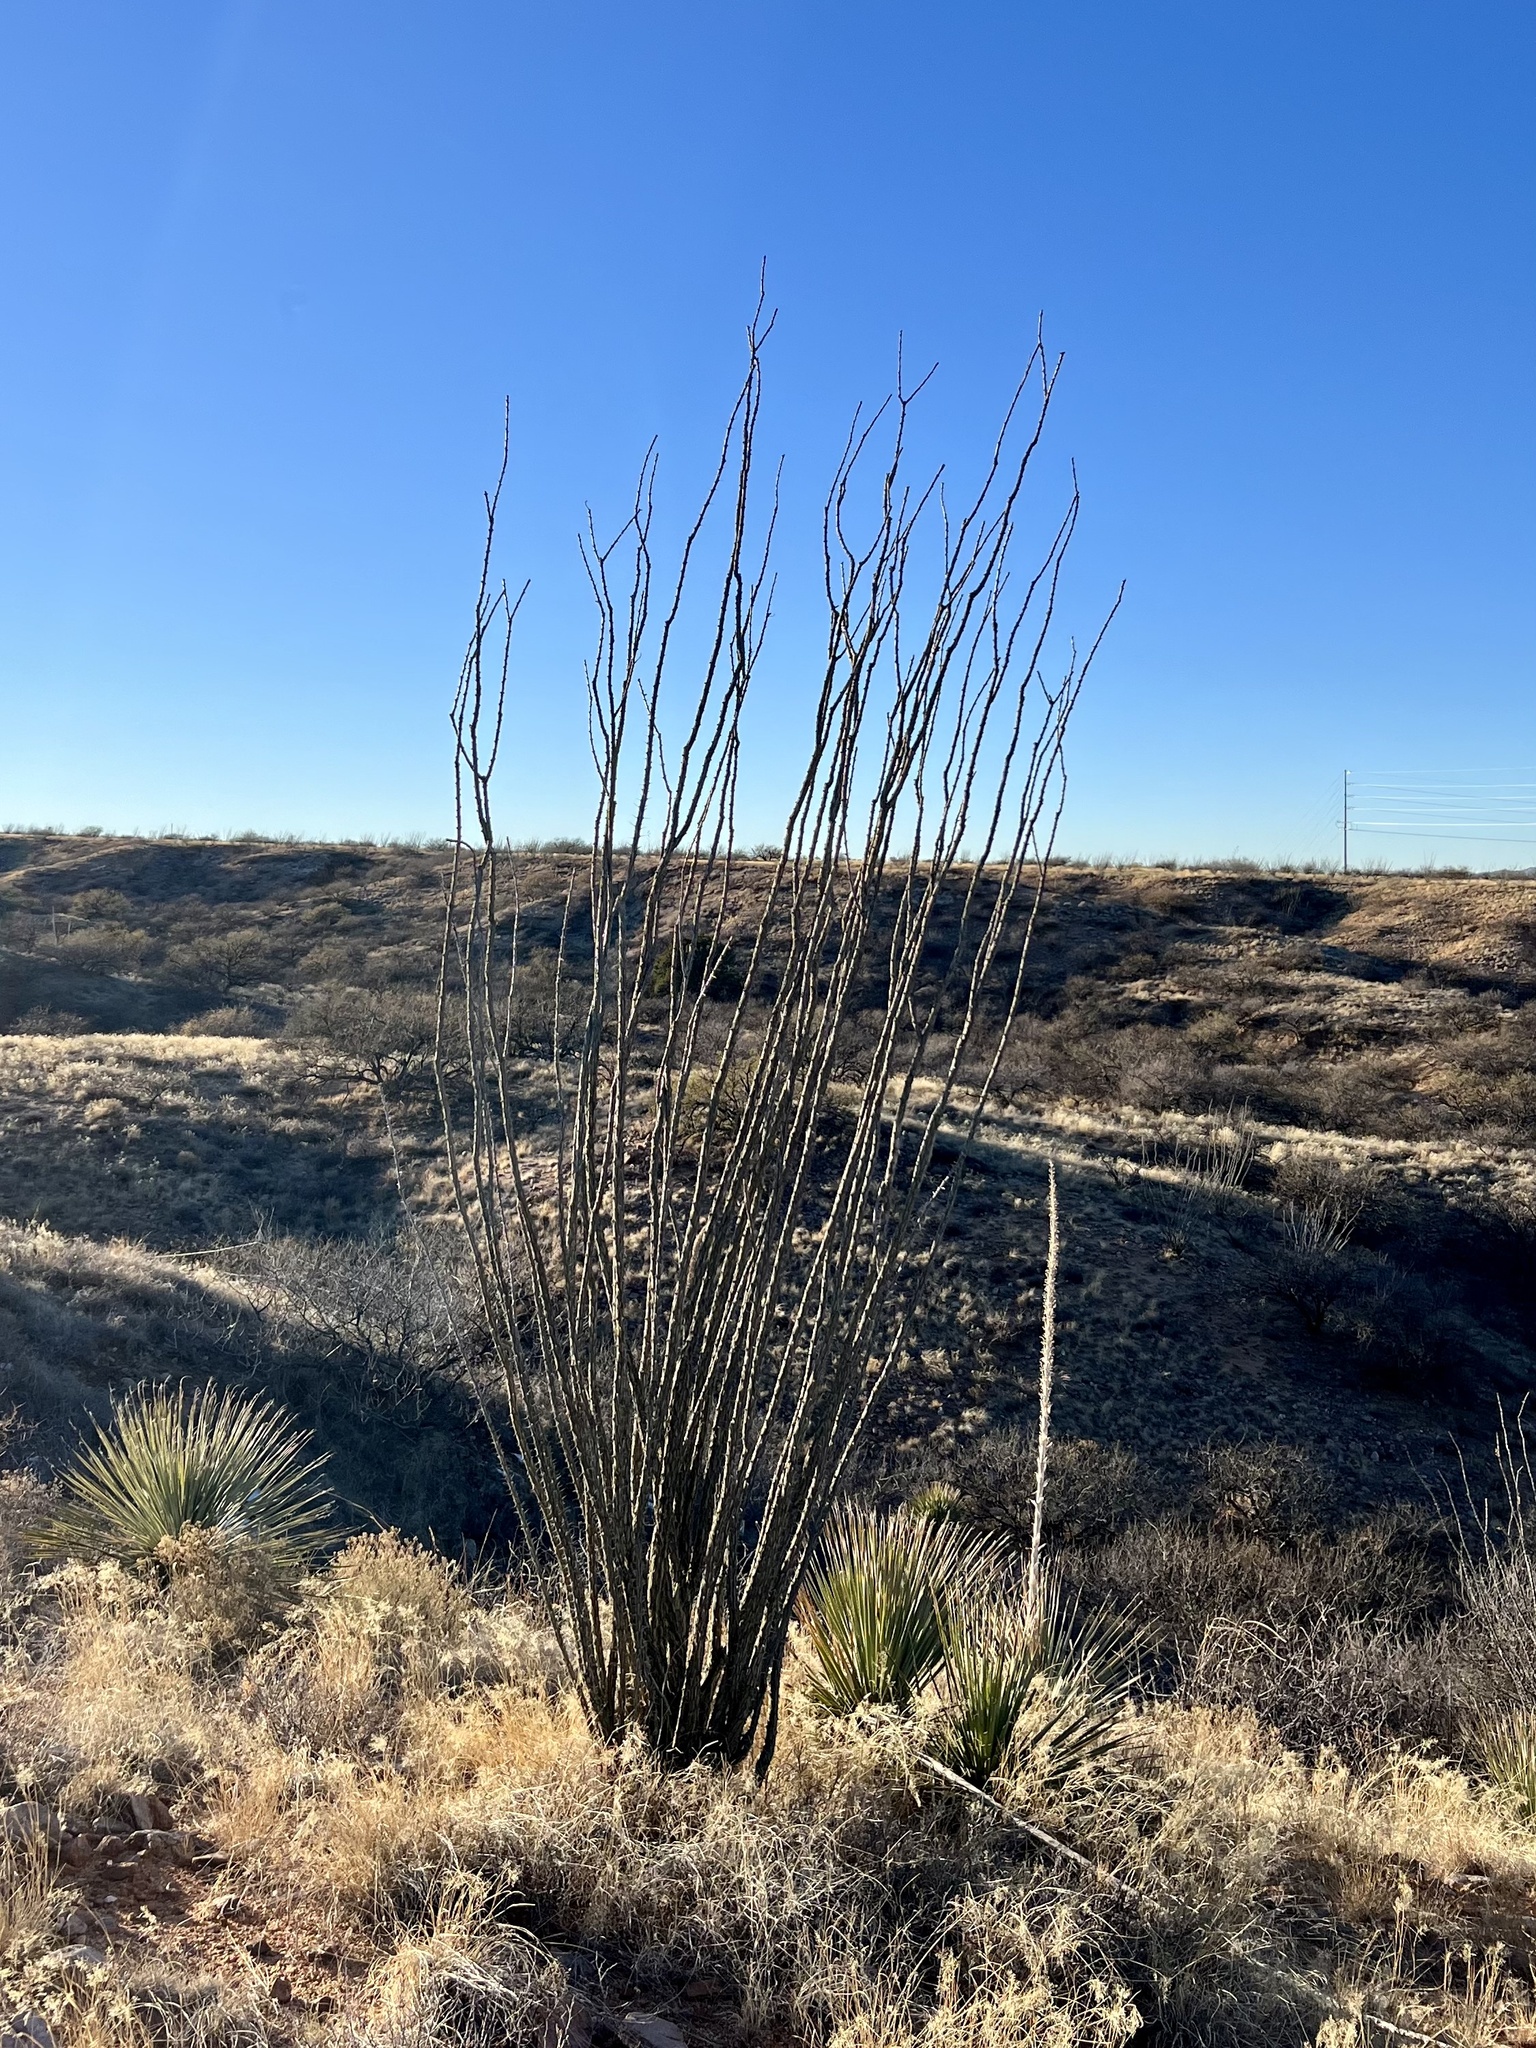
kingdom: Plantae
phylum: Tracheophyta
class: Magnoliopsida
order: Ericales
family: Fouquieriaceae
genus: Fouquieria
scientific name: Fouquieria splendens
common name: Vine-cactus
